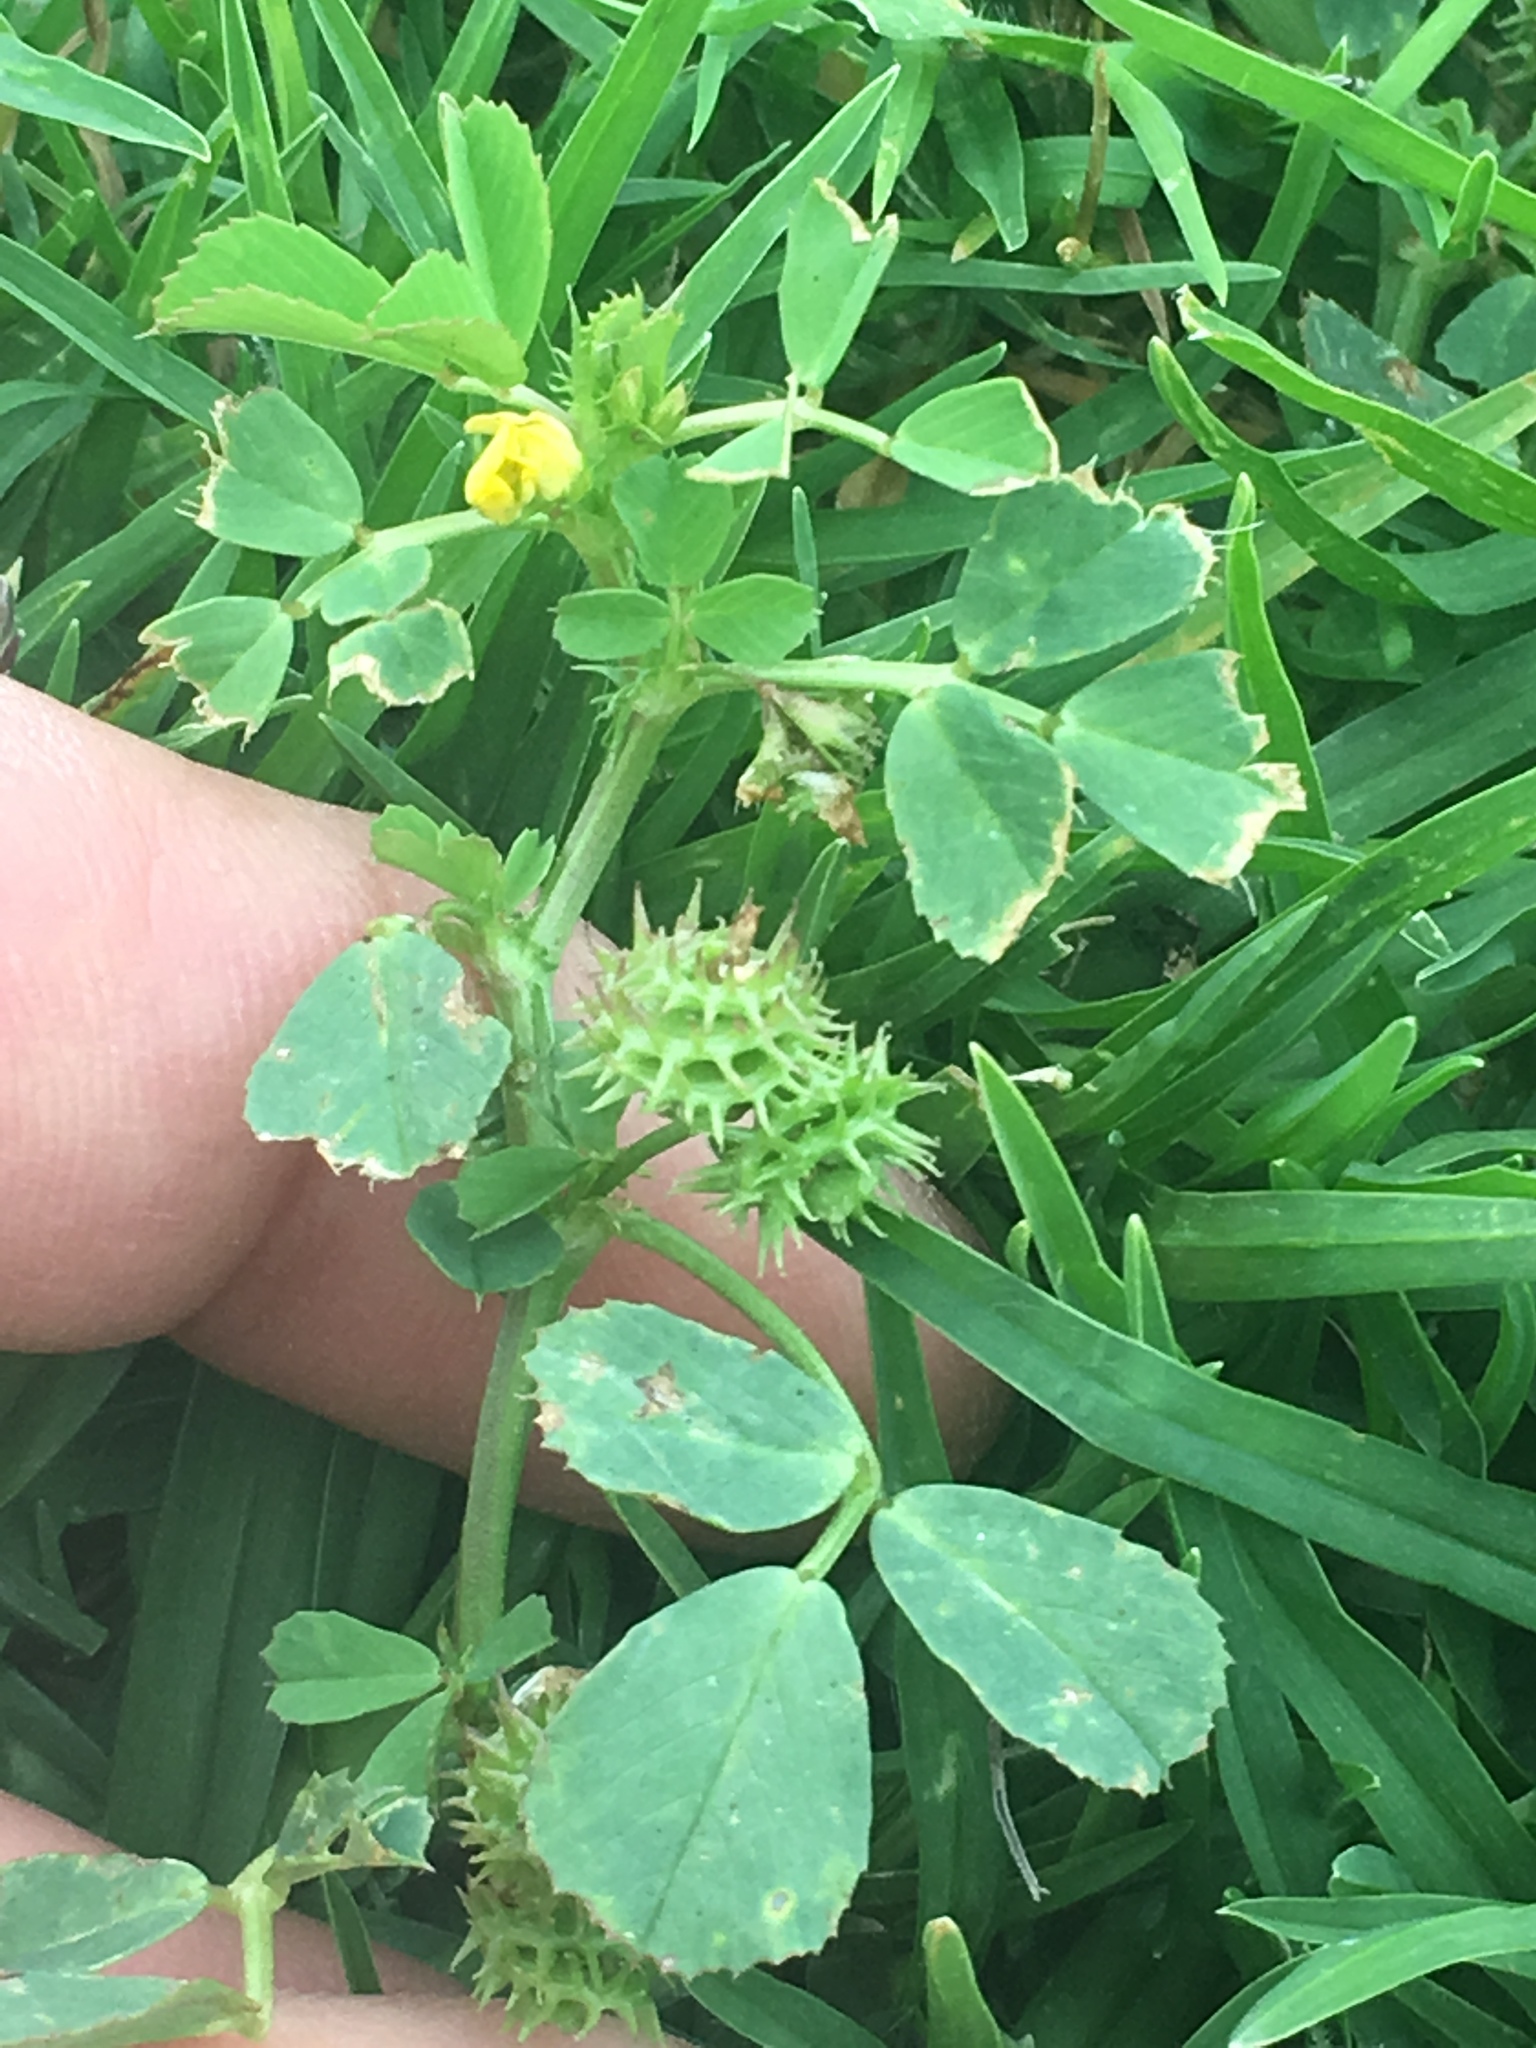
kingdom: Plantae
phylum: Tracheophyta
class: Magnoliopsida
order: Fabales
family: Fabaceae
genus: Medicago
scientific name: Medicago polymorpha
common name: Burclover
